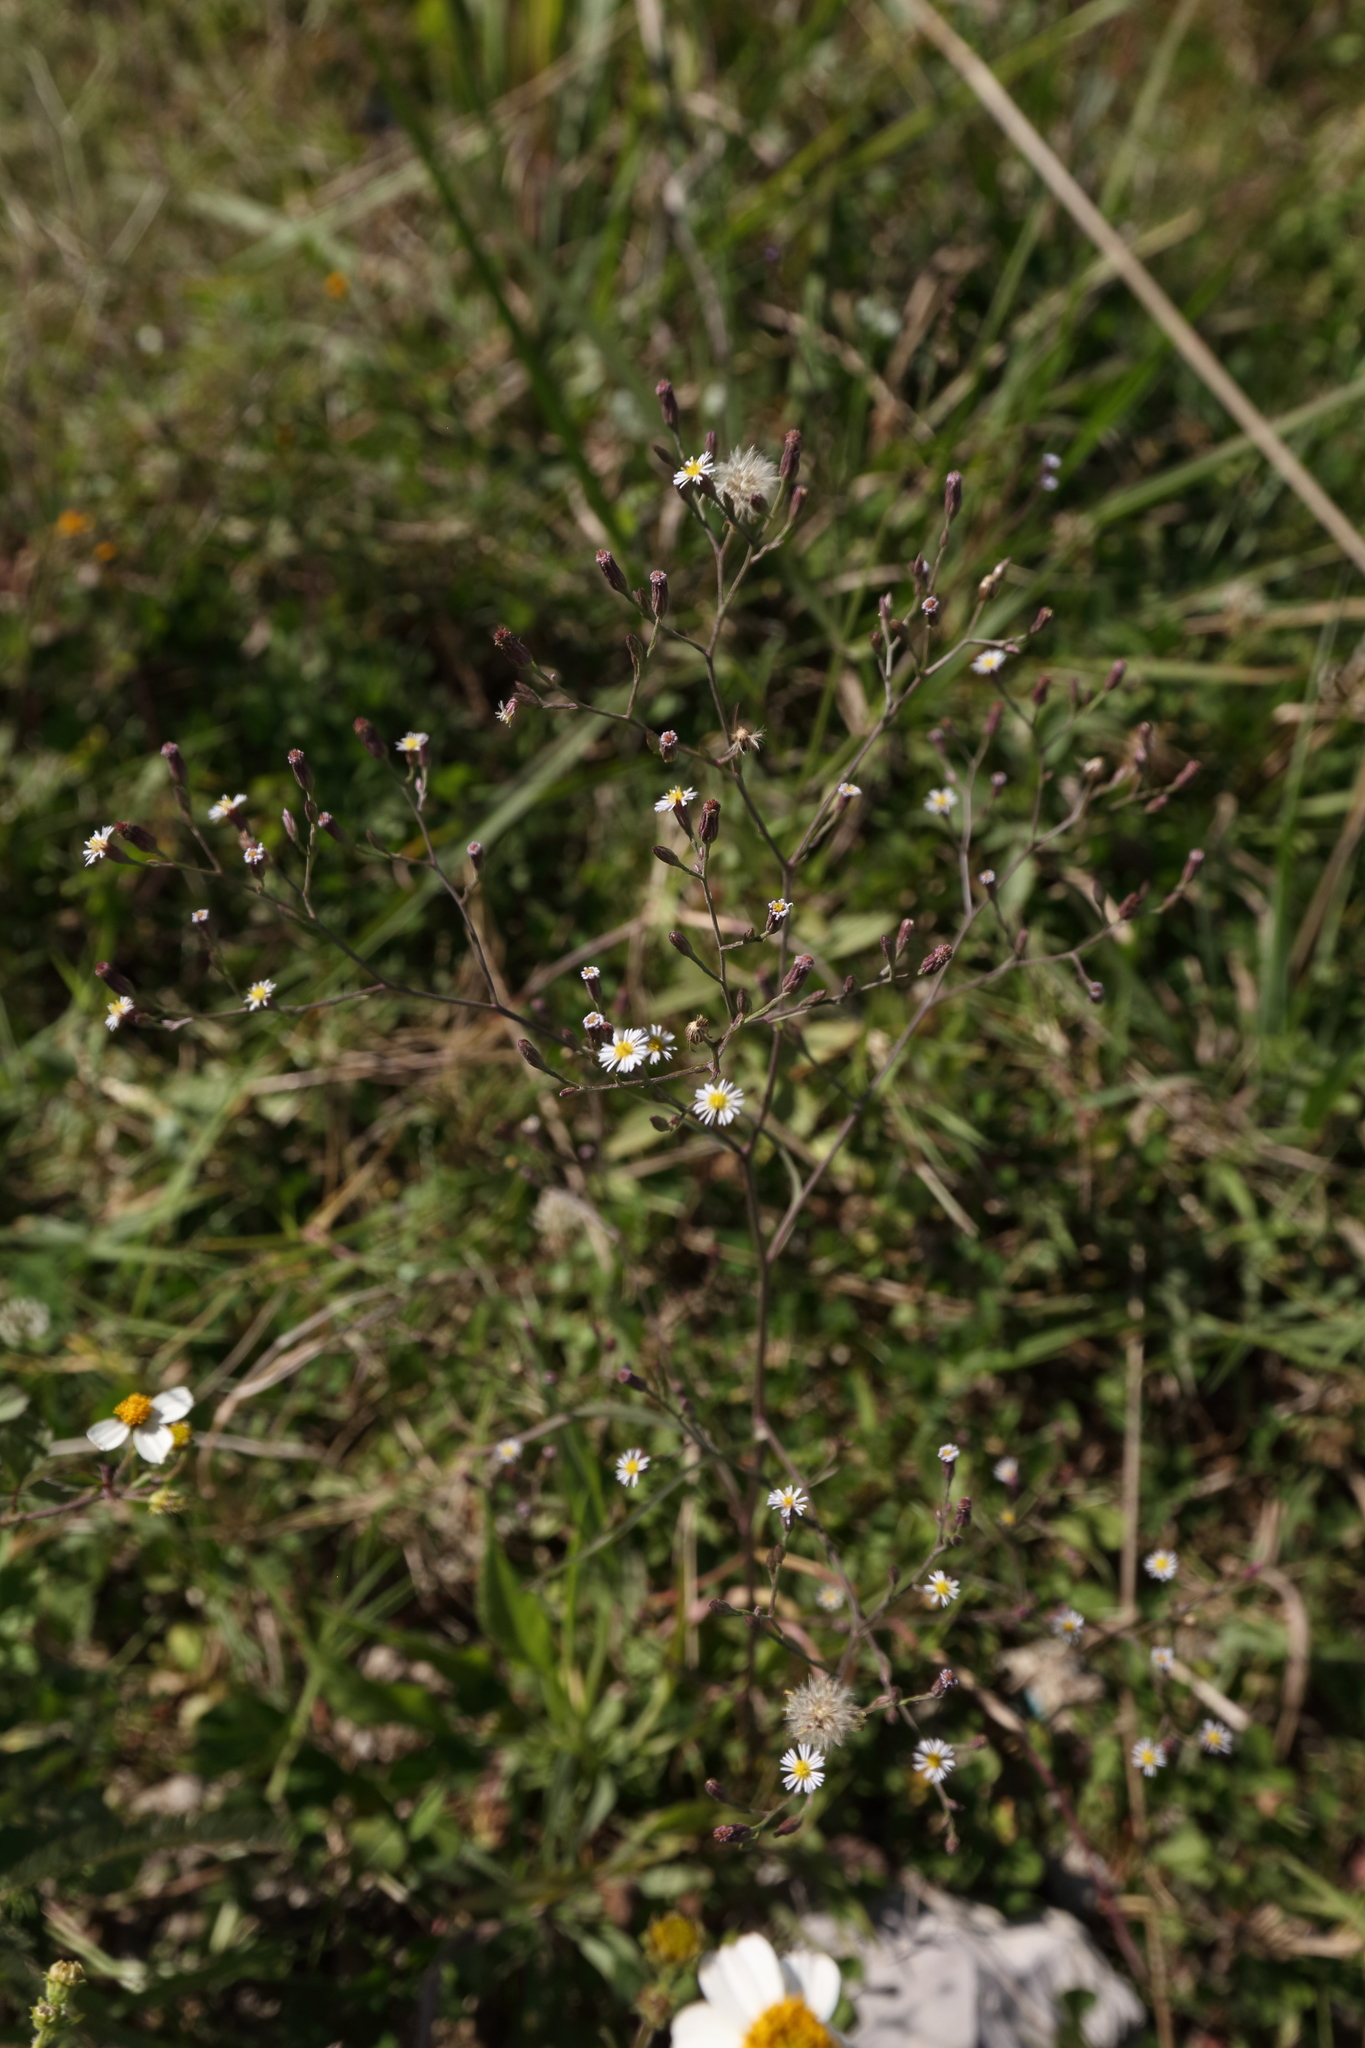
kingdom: Plantae
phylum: Tracheophyta
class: Magnoliopsida
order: Asterales
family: Asteraceae
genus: Symphyotrichum
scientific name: Symphyotrichum subulatum
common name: Annual saltmarsh aster
